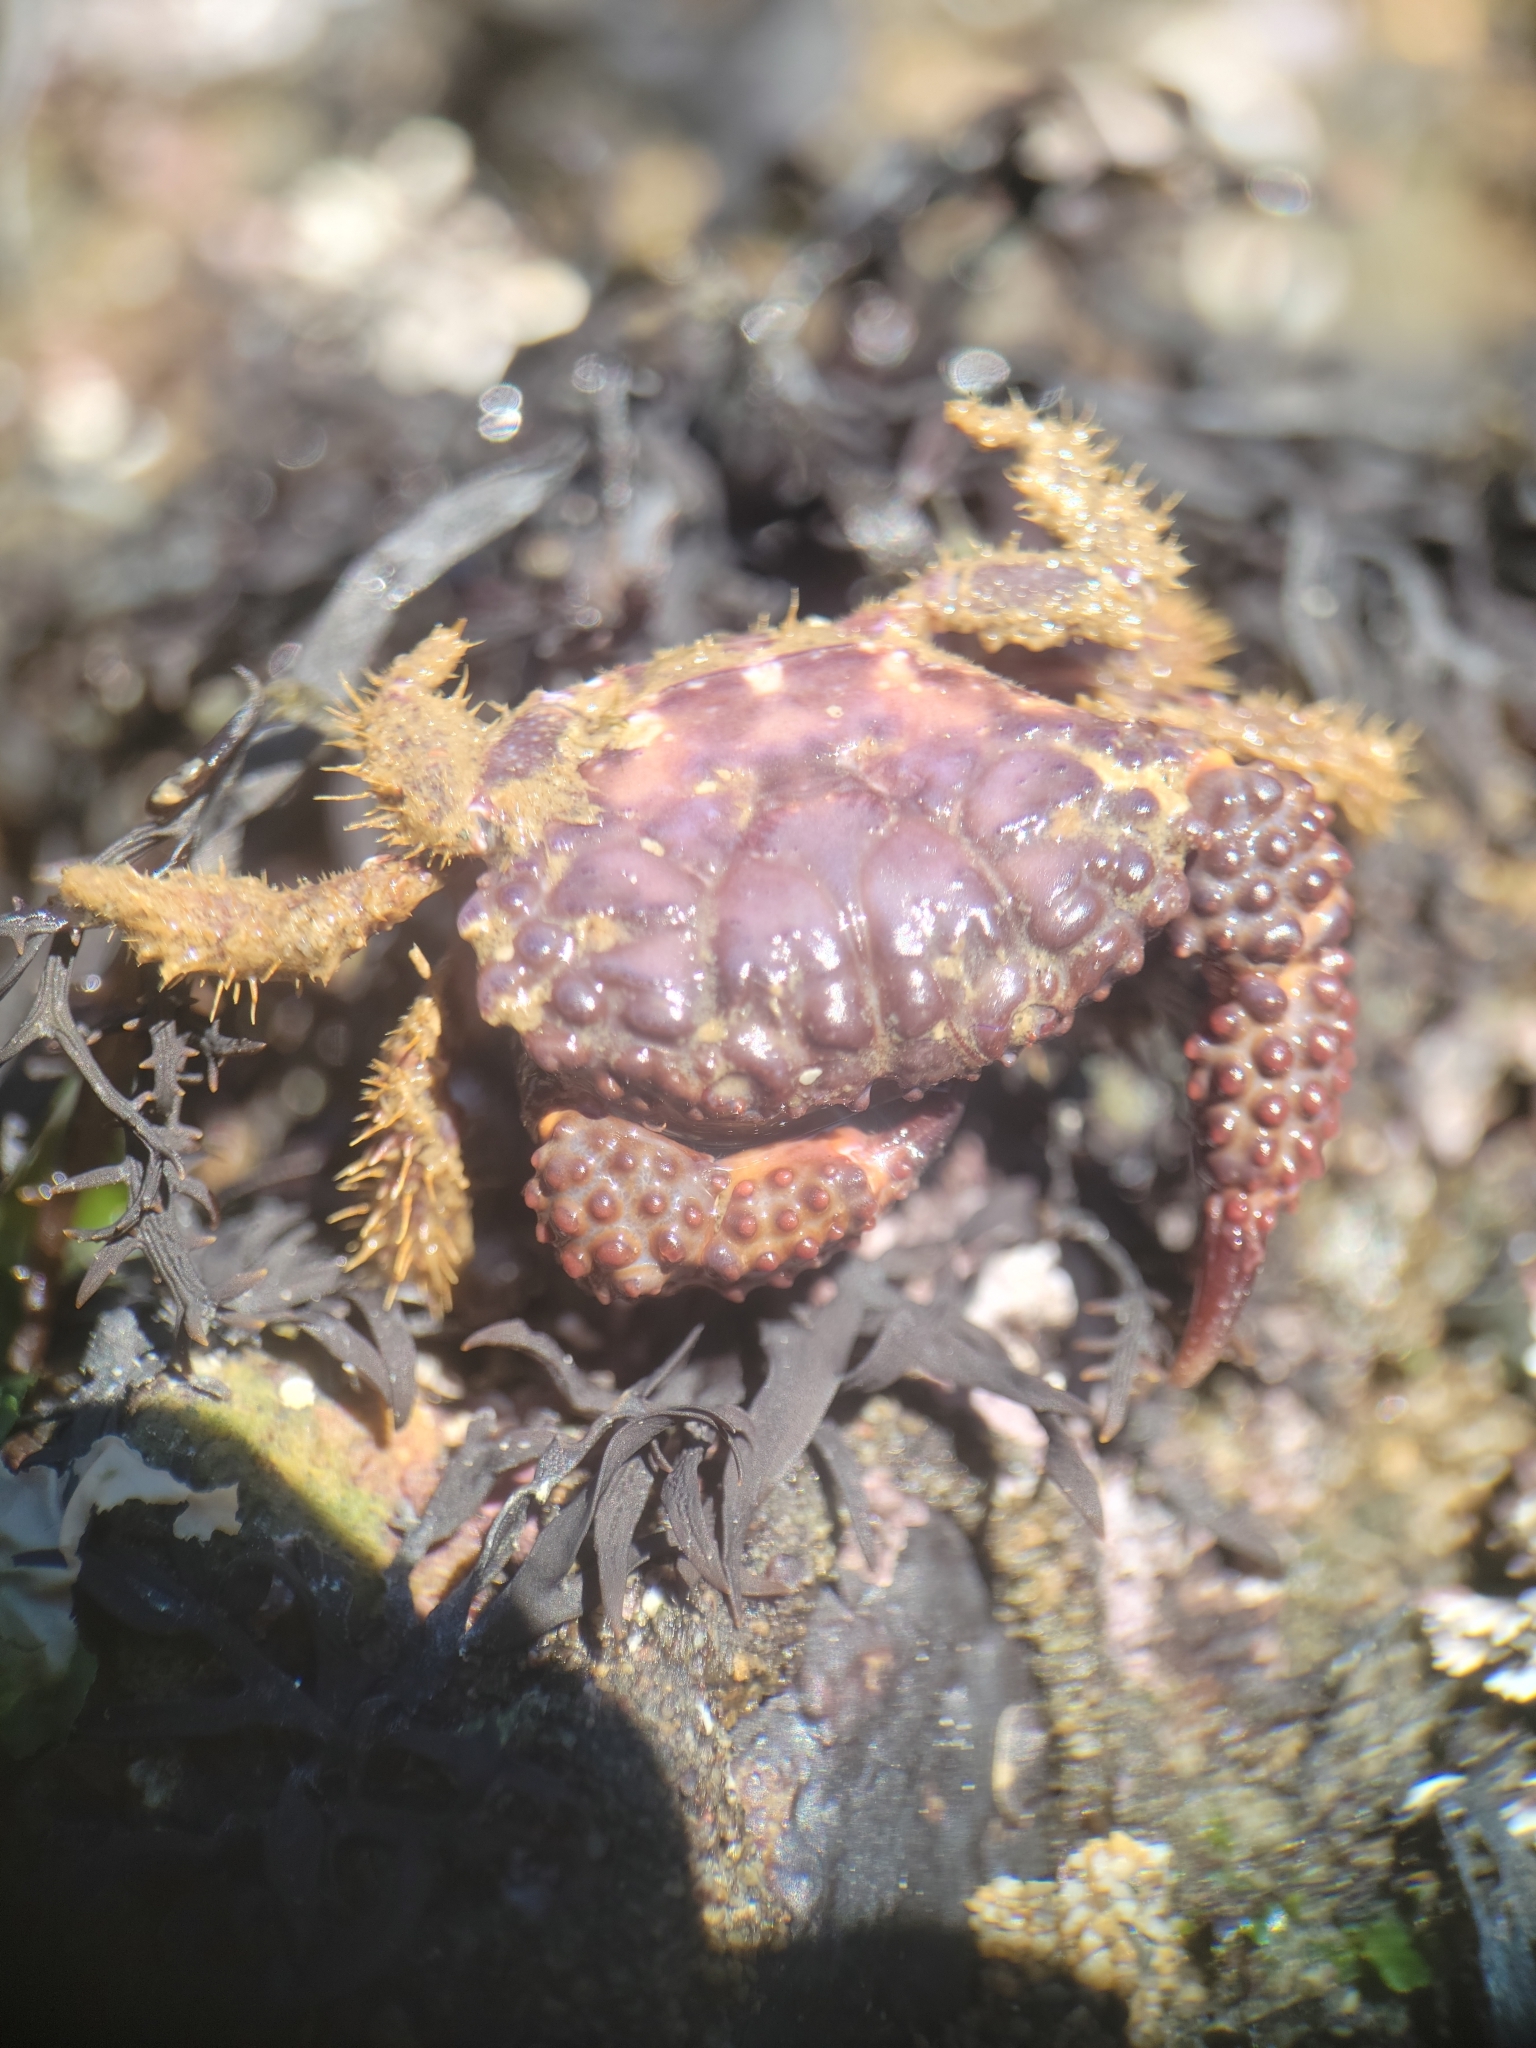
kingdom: Animalia
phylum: Arthropoda
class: Malacostraca
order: Decapoda
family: Xanthidae
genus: Paraxanthias
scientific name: Paraxanthias taylori
